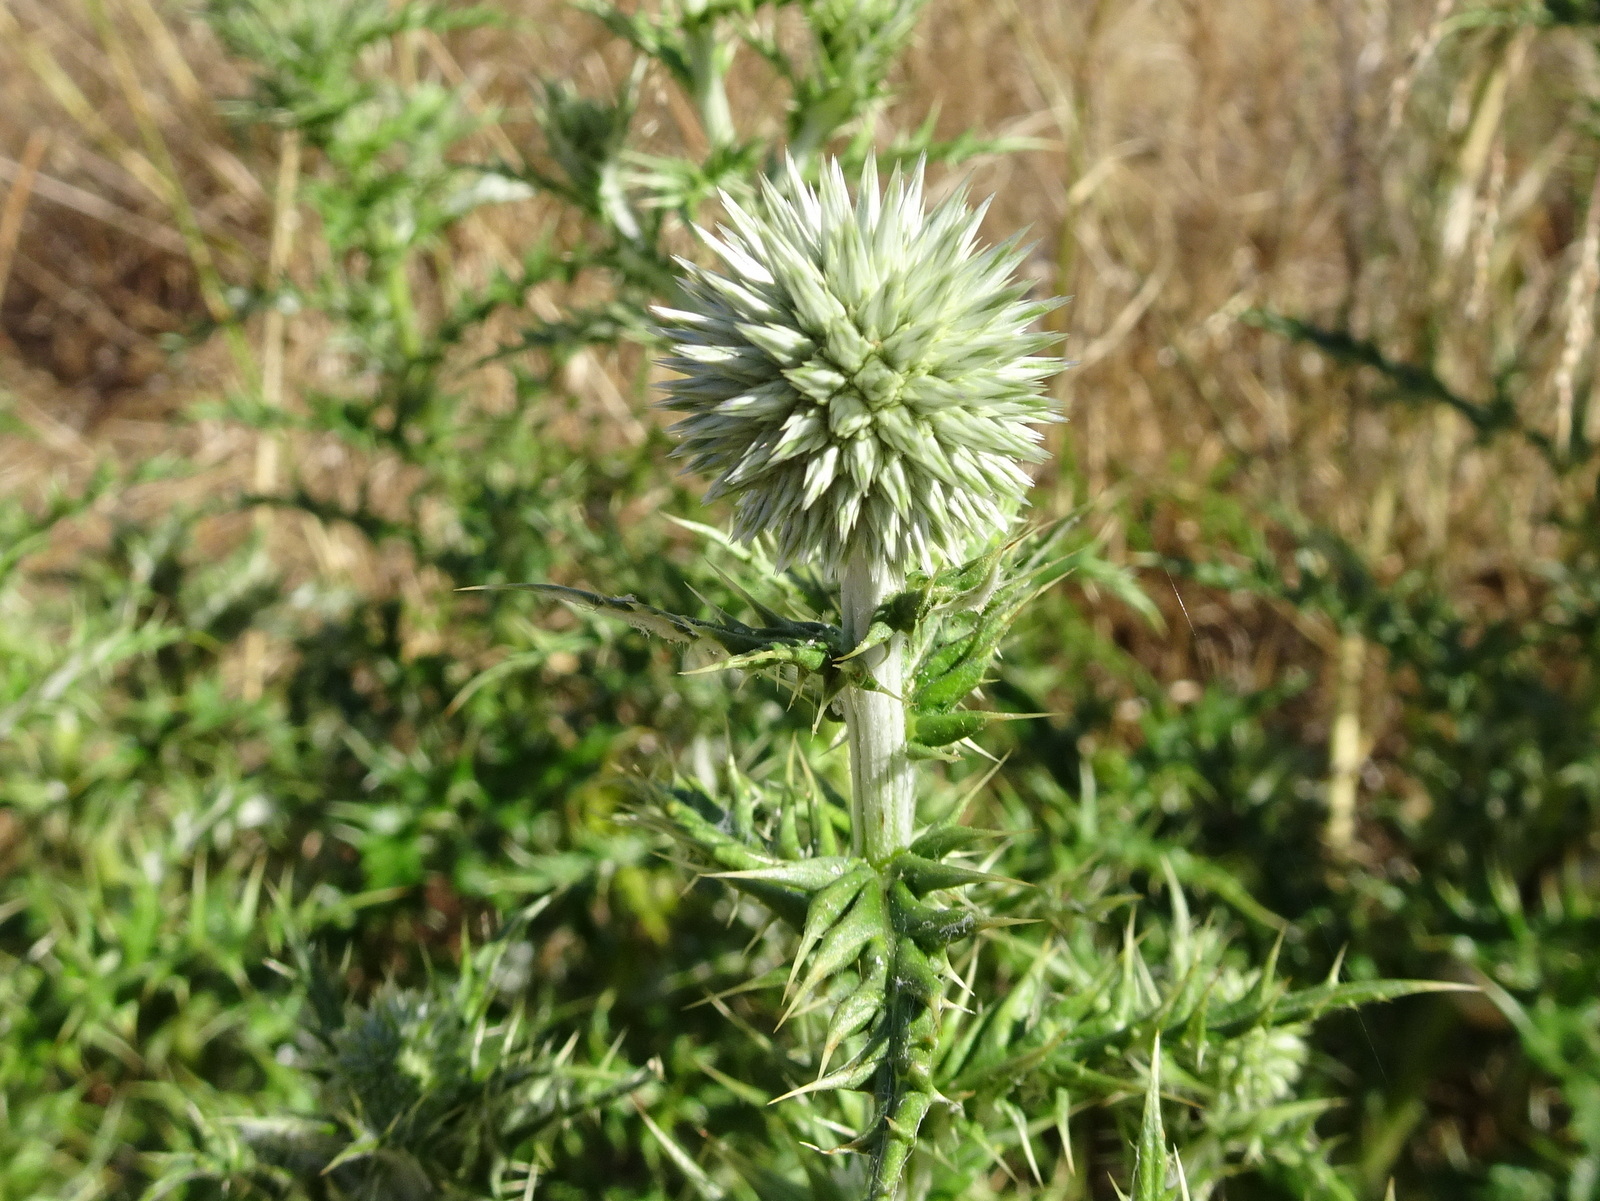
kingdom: Plantae
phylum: Tracheophyta
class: Magnoliopsida
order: Asterales
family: Asteraceae
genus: Echinops
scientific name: Echinops ritro
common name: Globe thistle
